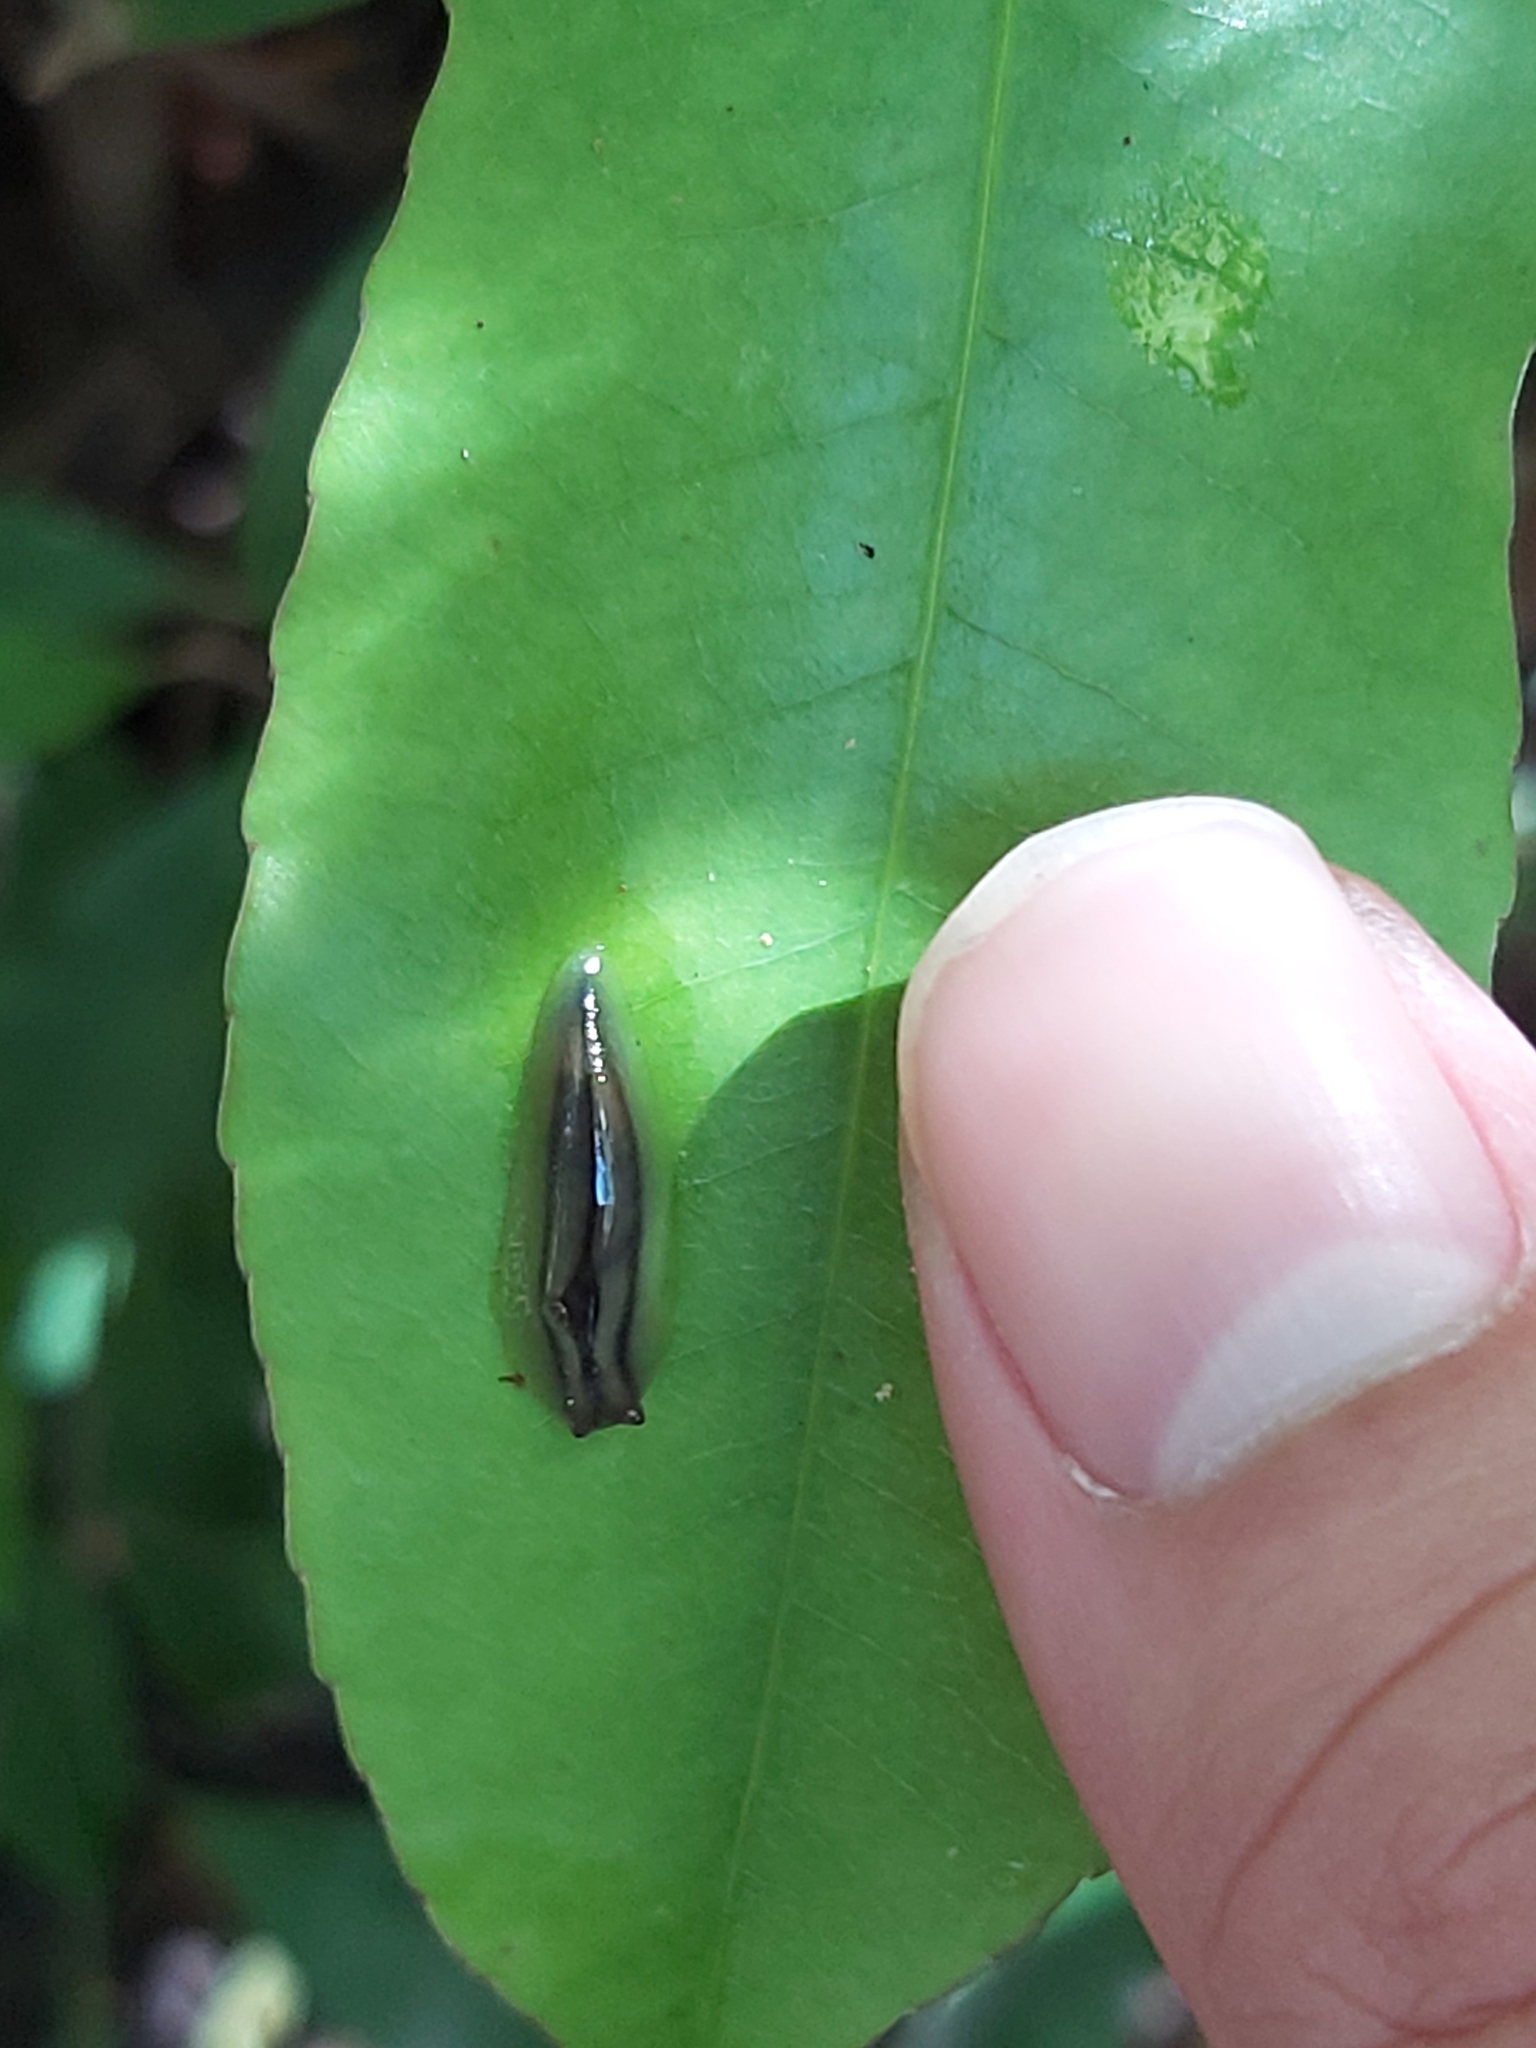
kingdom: Animalia
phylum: Mollusca
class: Gastropoda
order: Stylommatophora
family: Athoracophoridae
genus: Triboniophorus
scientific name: Triboniophorus graeffei
